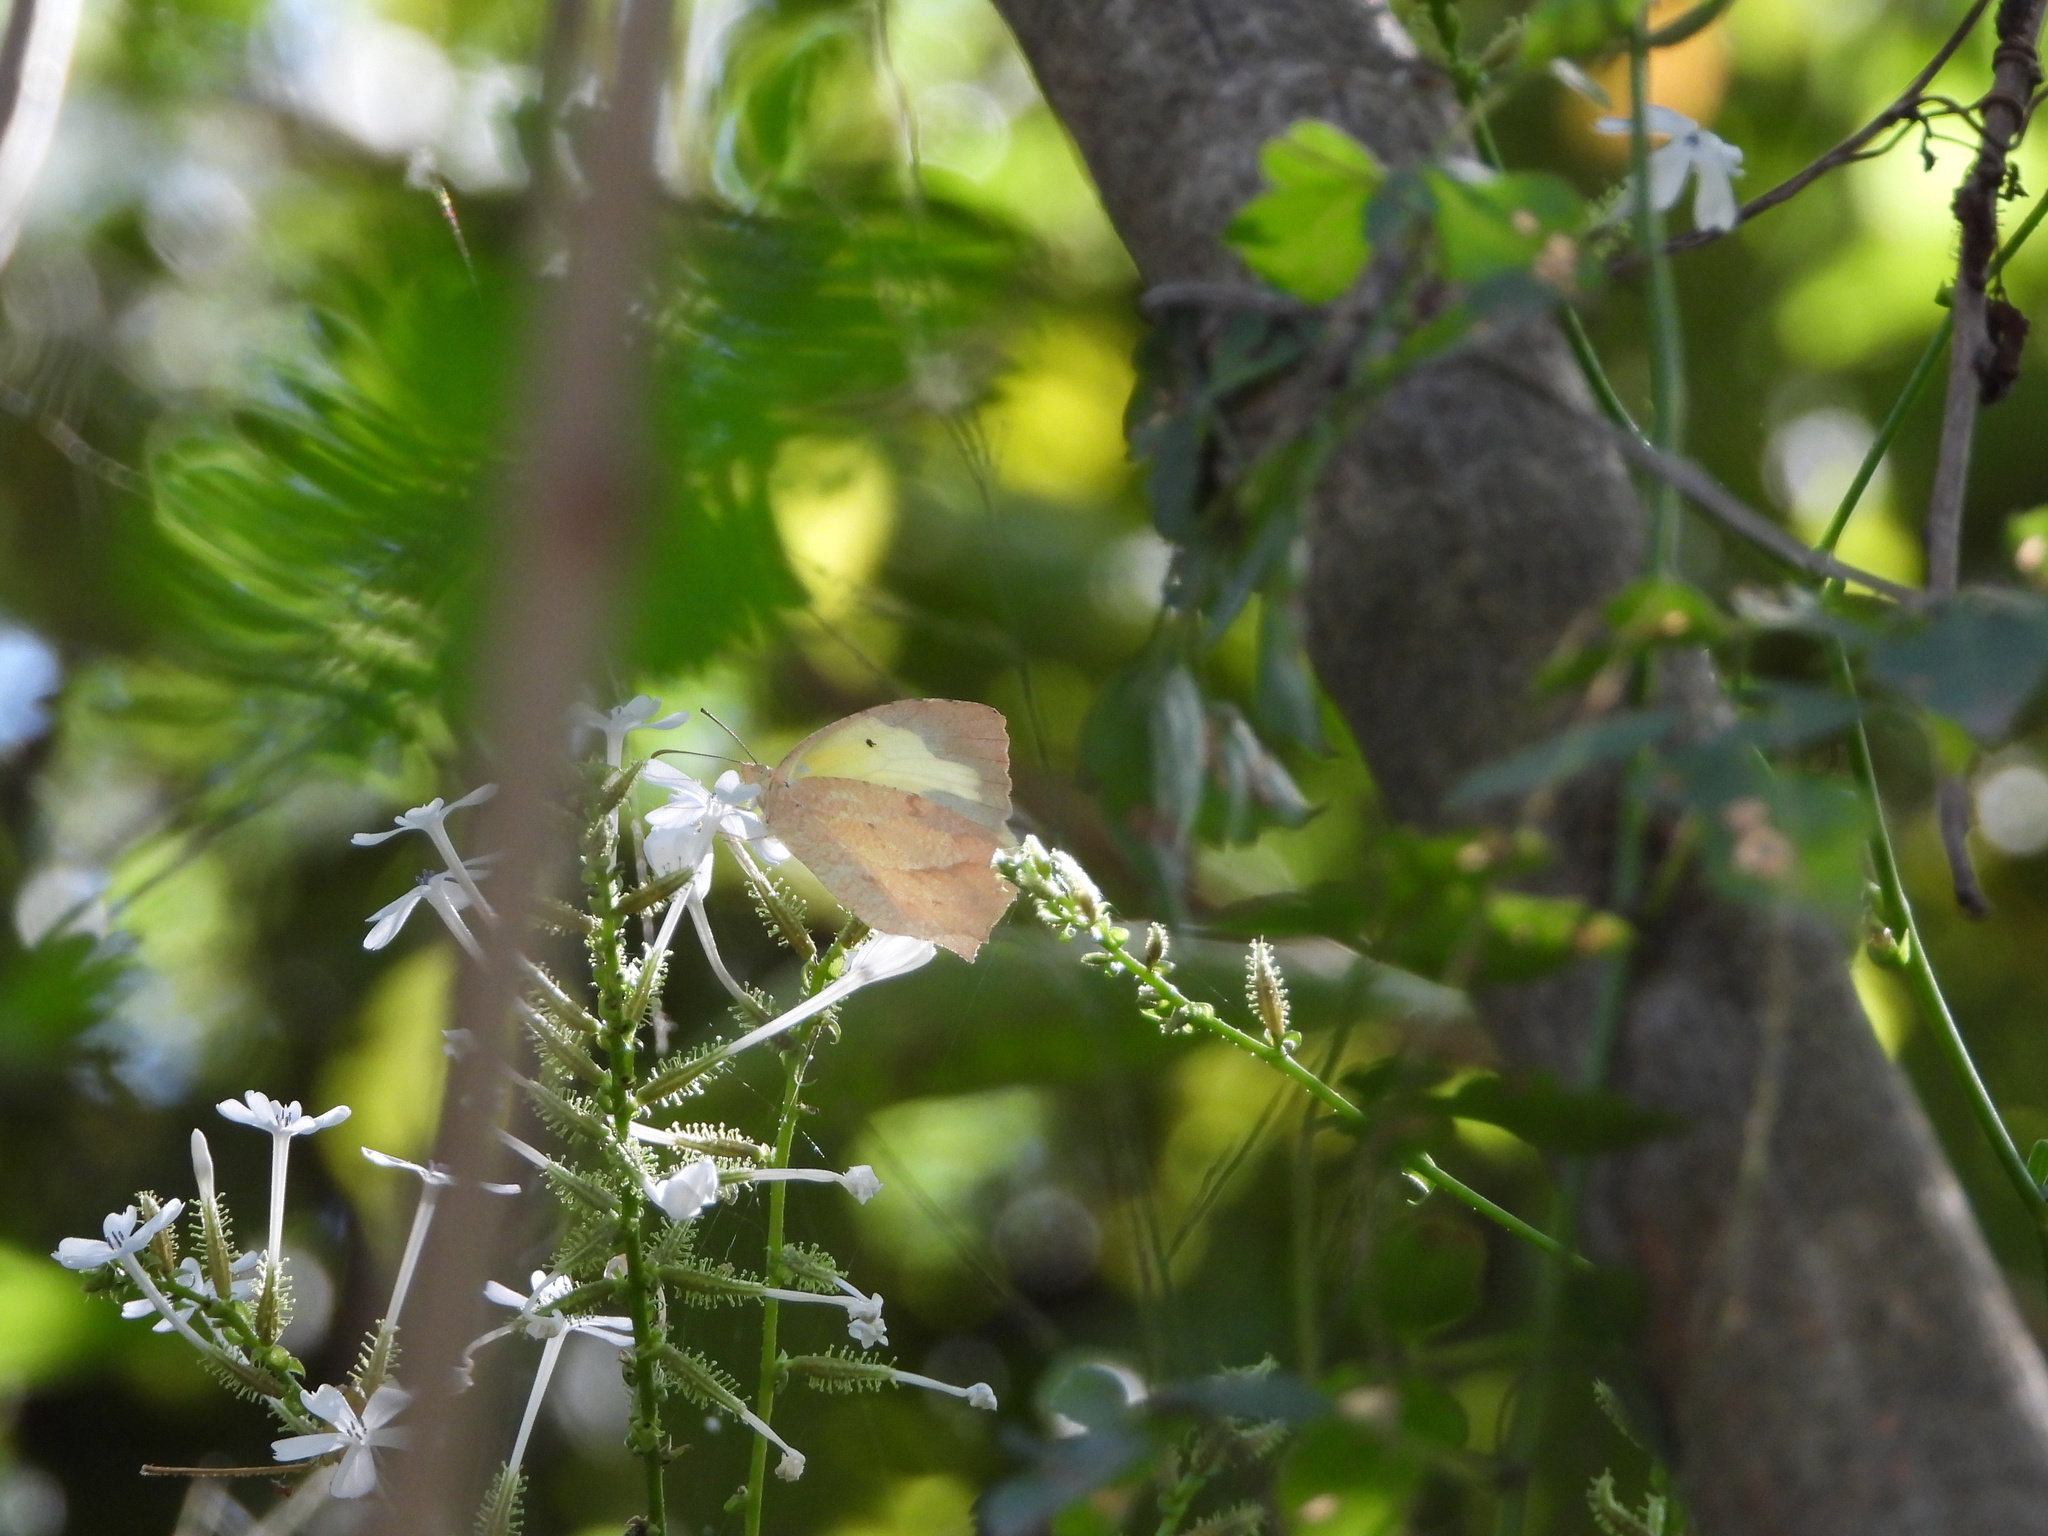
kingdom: Animalia
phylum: Arthropoda
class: Insecta
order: Lepidoptera
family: Pieridae
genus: Abaeis
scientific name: Abaeis mexicana
